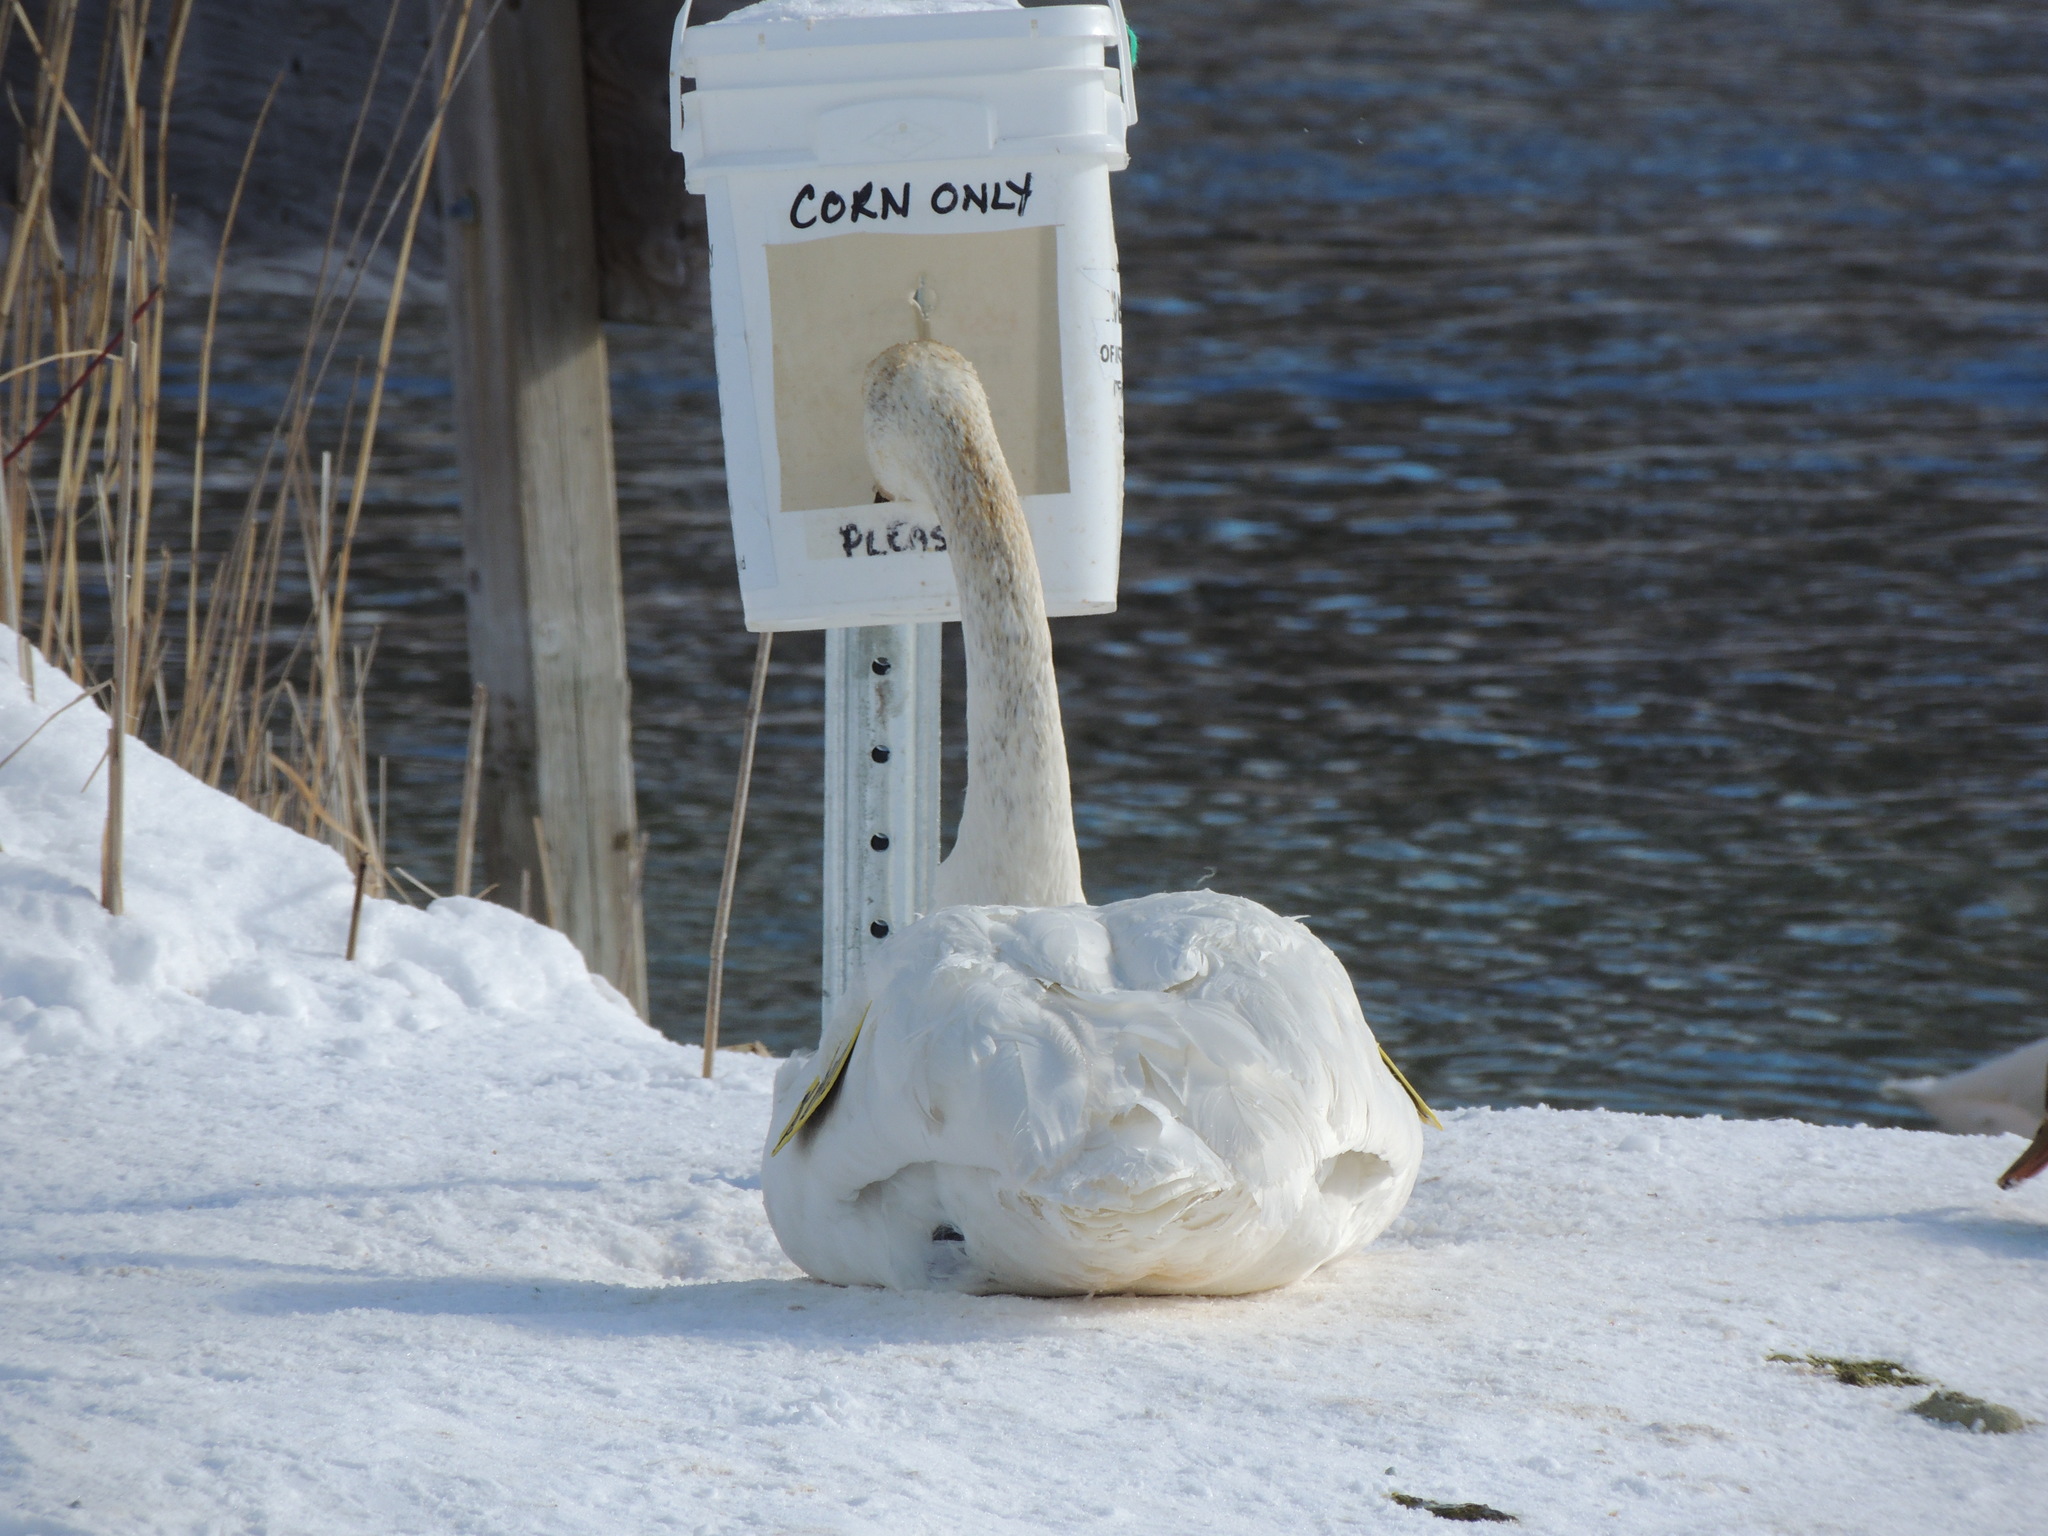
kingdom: Animalia
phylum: Chordata
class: Aves
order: Anseriformes
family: Anatidae
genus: Cygnus
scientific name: Cygnus buccinator
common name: Trumpeter swan
